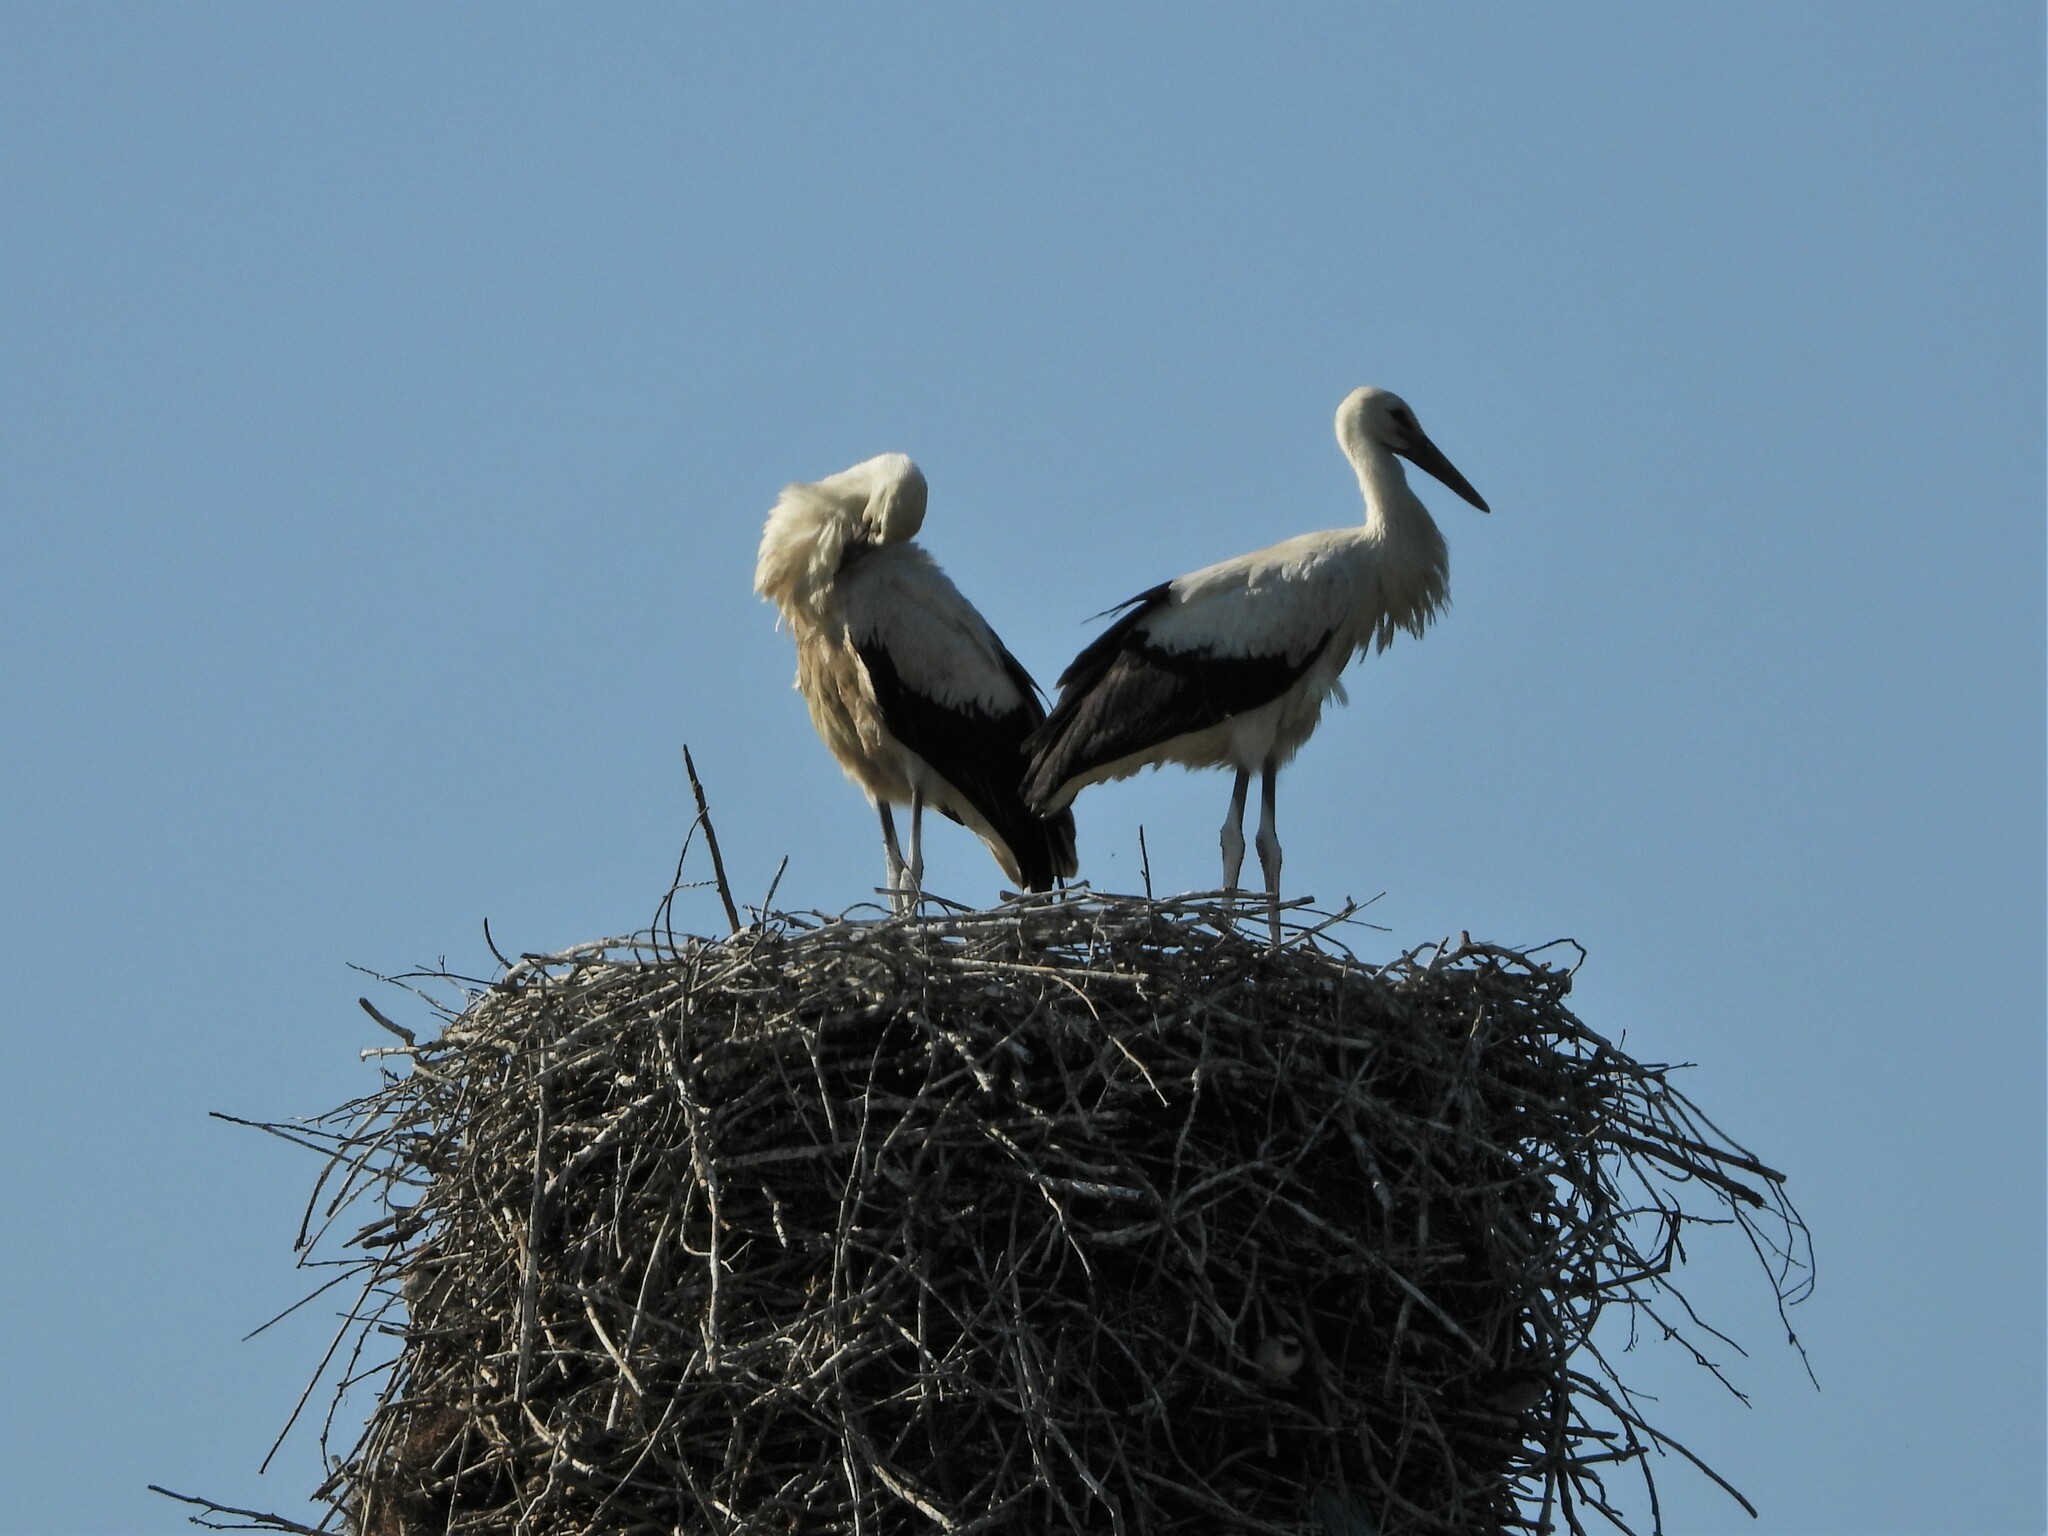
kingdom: Animalia
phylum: Chordata
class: Aves
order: Ciconiiformes
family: Ciconiidae
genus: Ciconia
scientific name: Ciconia ciconia
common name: White stork
